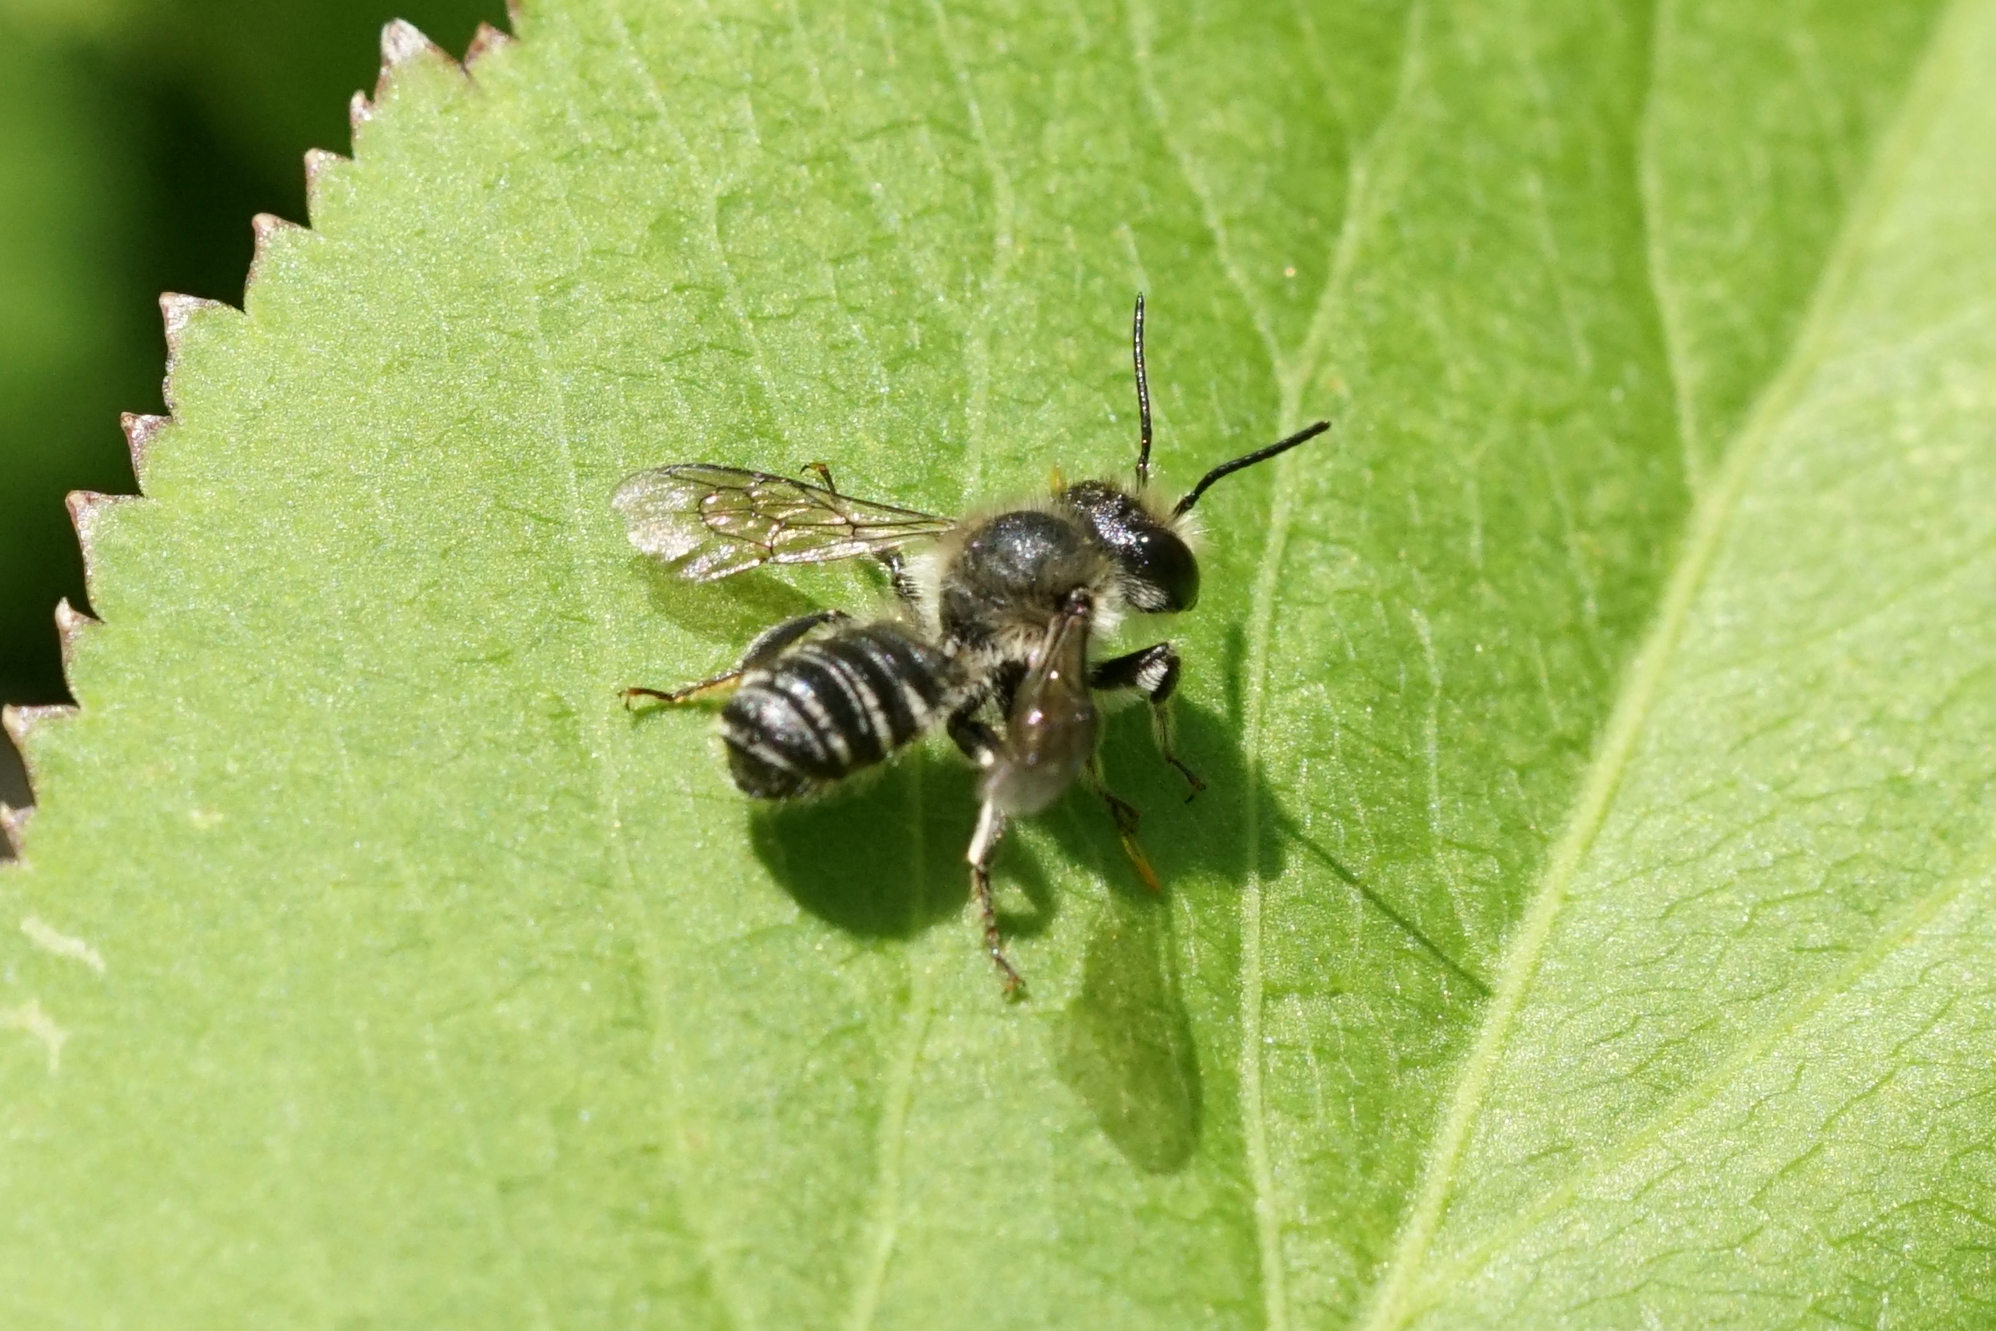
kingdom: Animalia
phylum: Arthropoda
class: Insecta
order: Hymenoptera
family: Megachilidae
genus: Megachile
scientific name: Megachile
